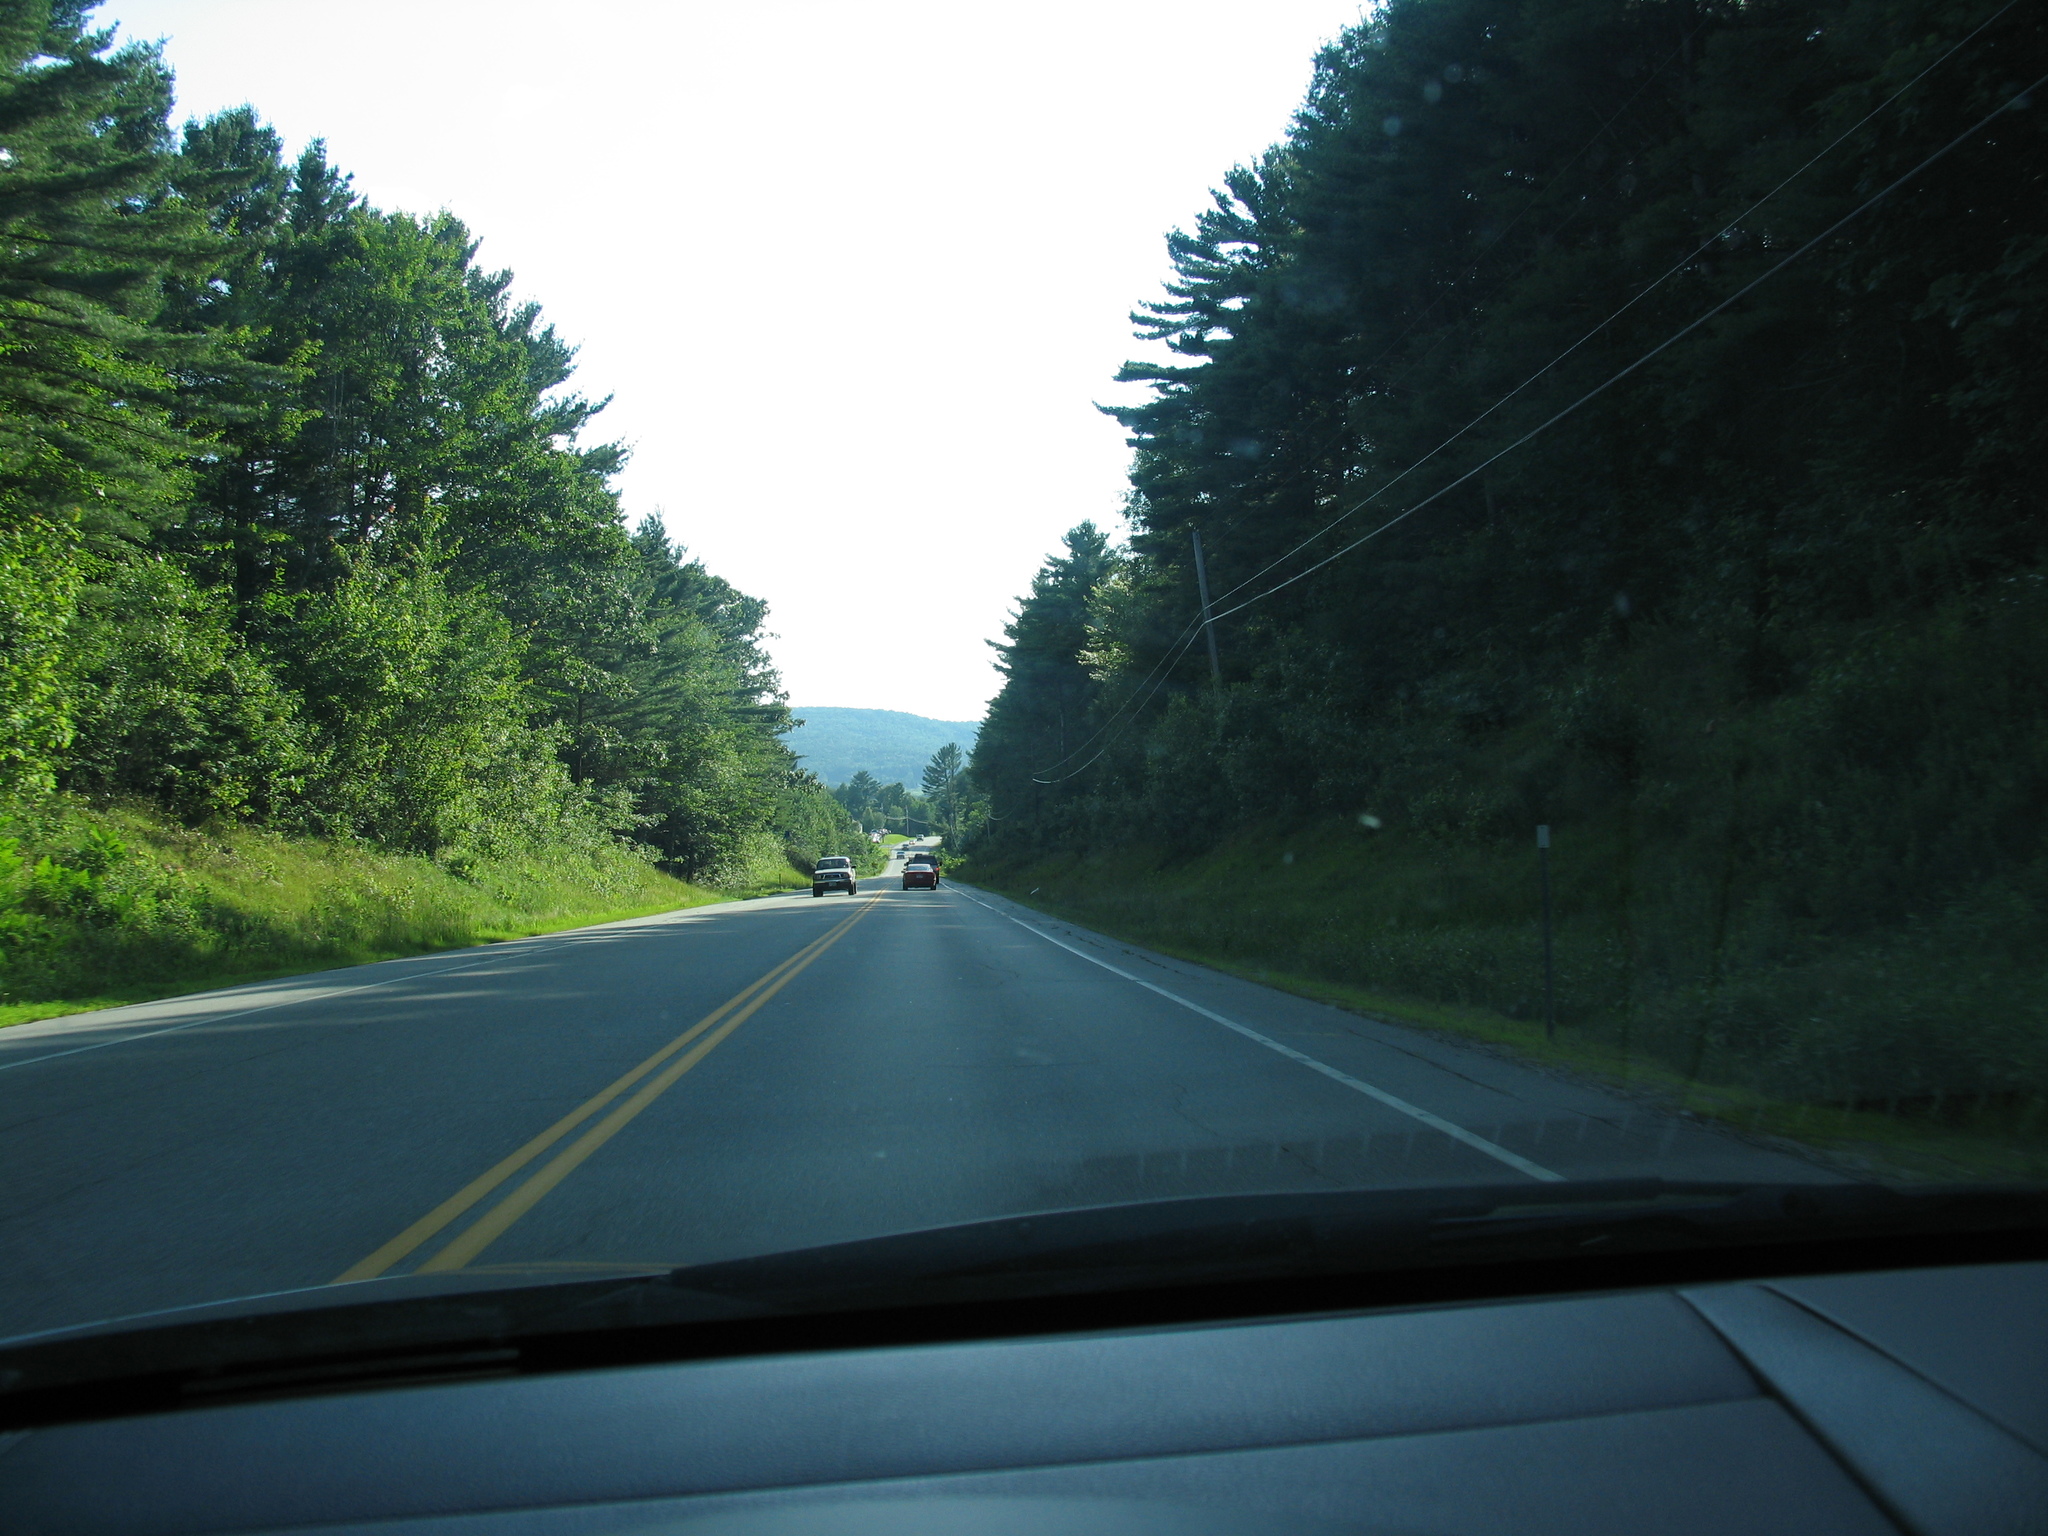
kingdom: Plantae
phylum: Tracheophyta
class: Pinopsida
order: Pinales
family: Pinaceae
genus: Pinus
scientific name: Pinus strobus
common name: Weymouth pine
